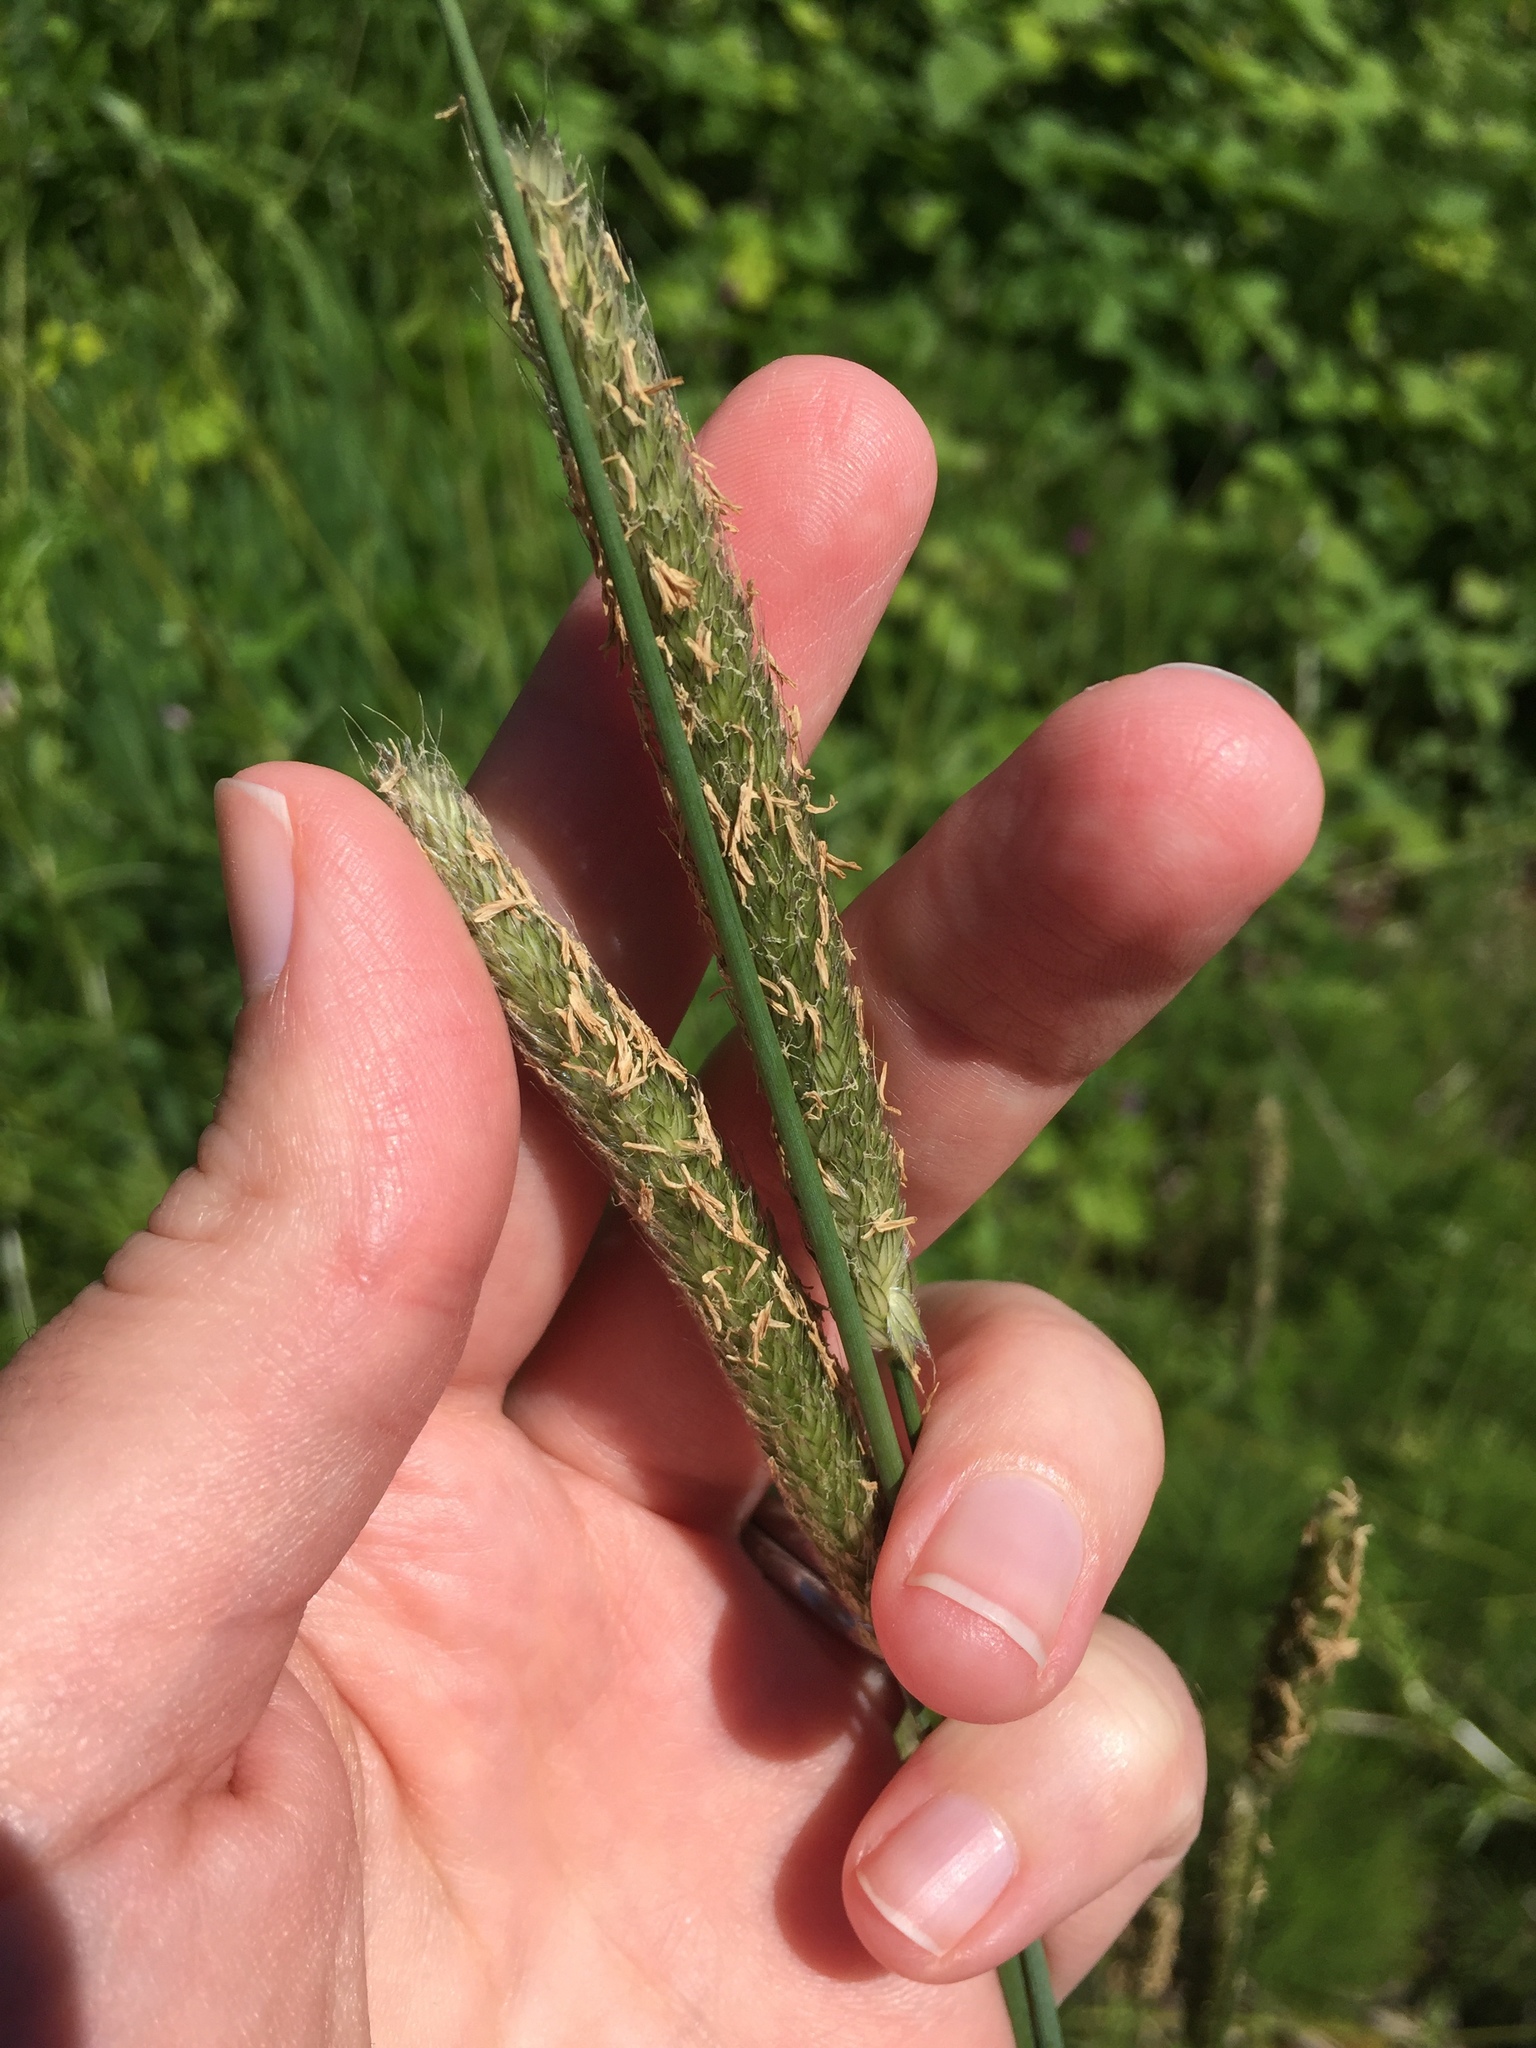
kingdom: Plantae
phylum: Tracheophyta
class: Liliopsida
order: Poales
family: Poaceae
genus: Alopecurus
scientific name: Alopecurus pratensis
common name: Meadow foxtail
